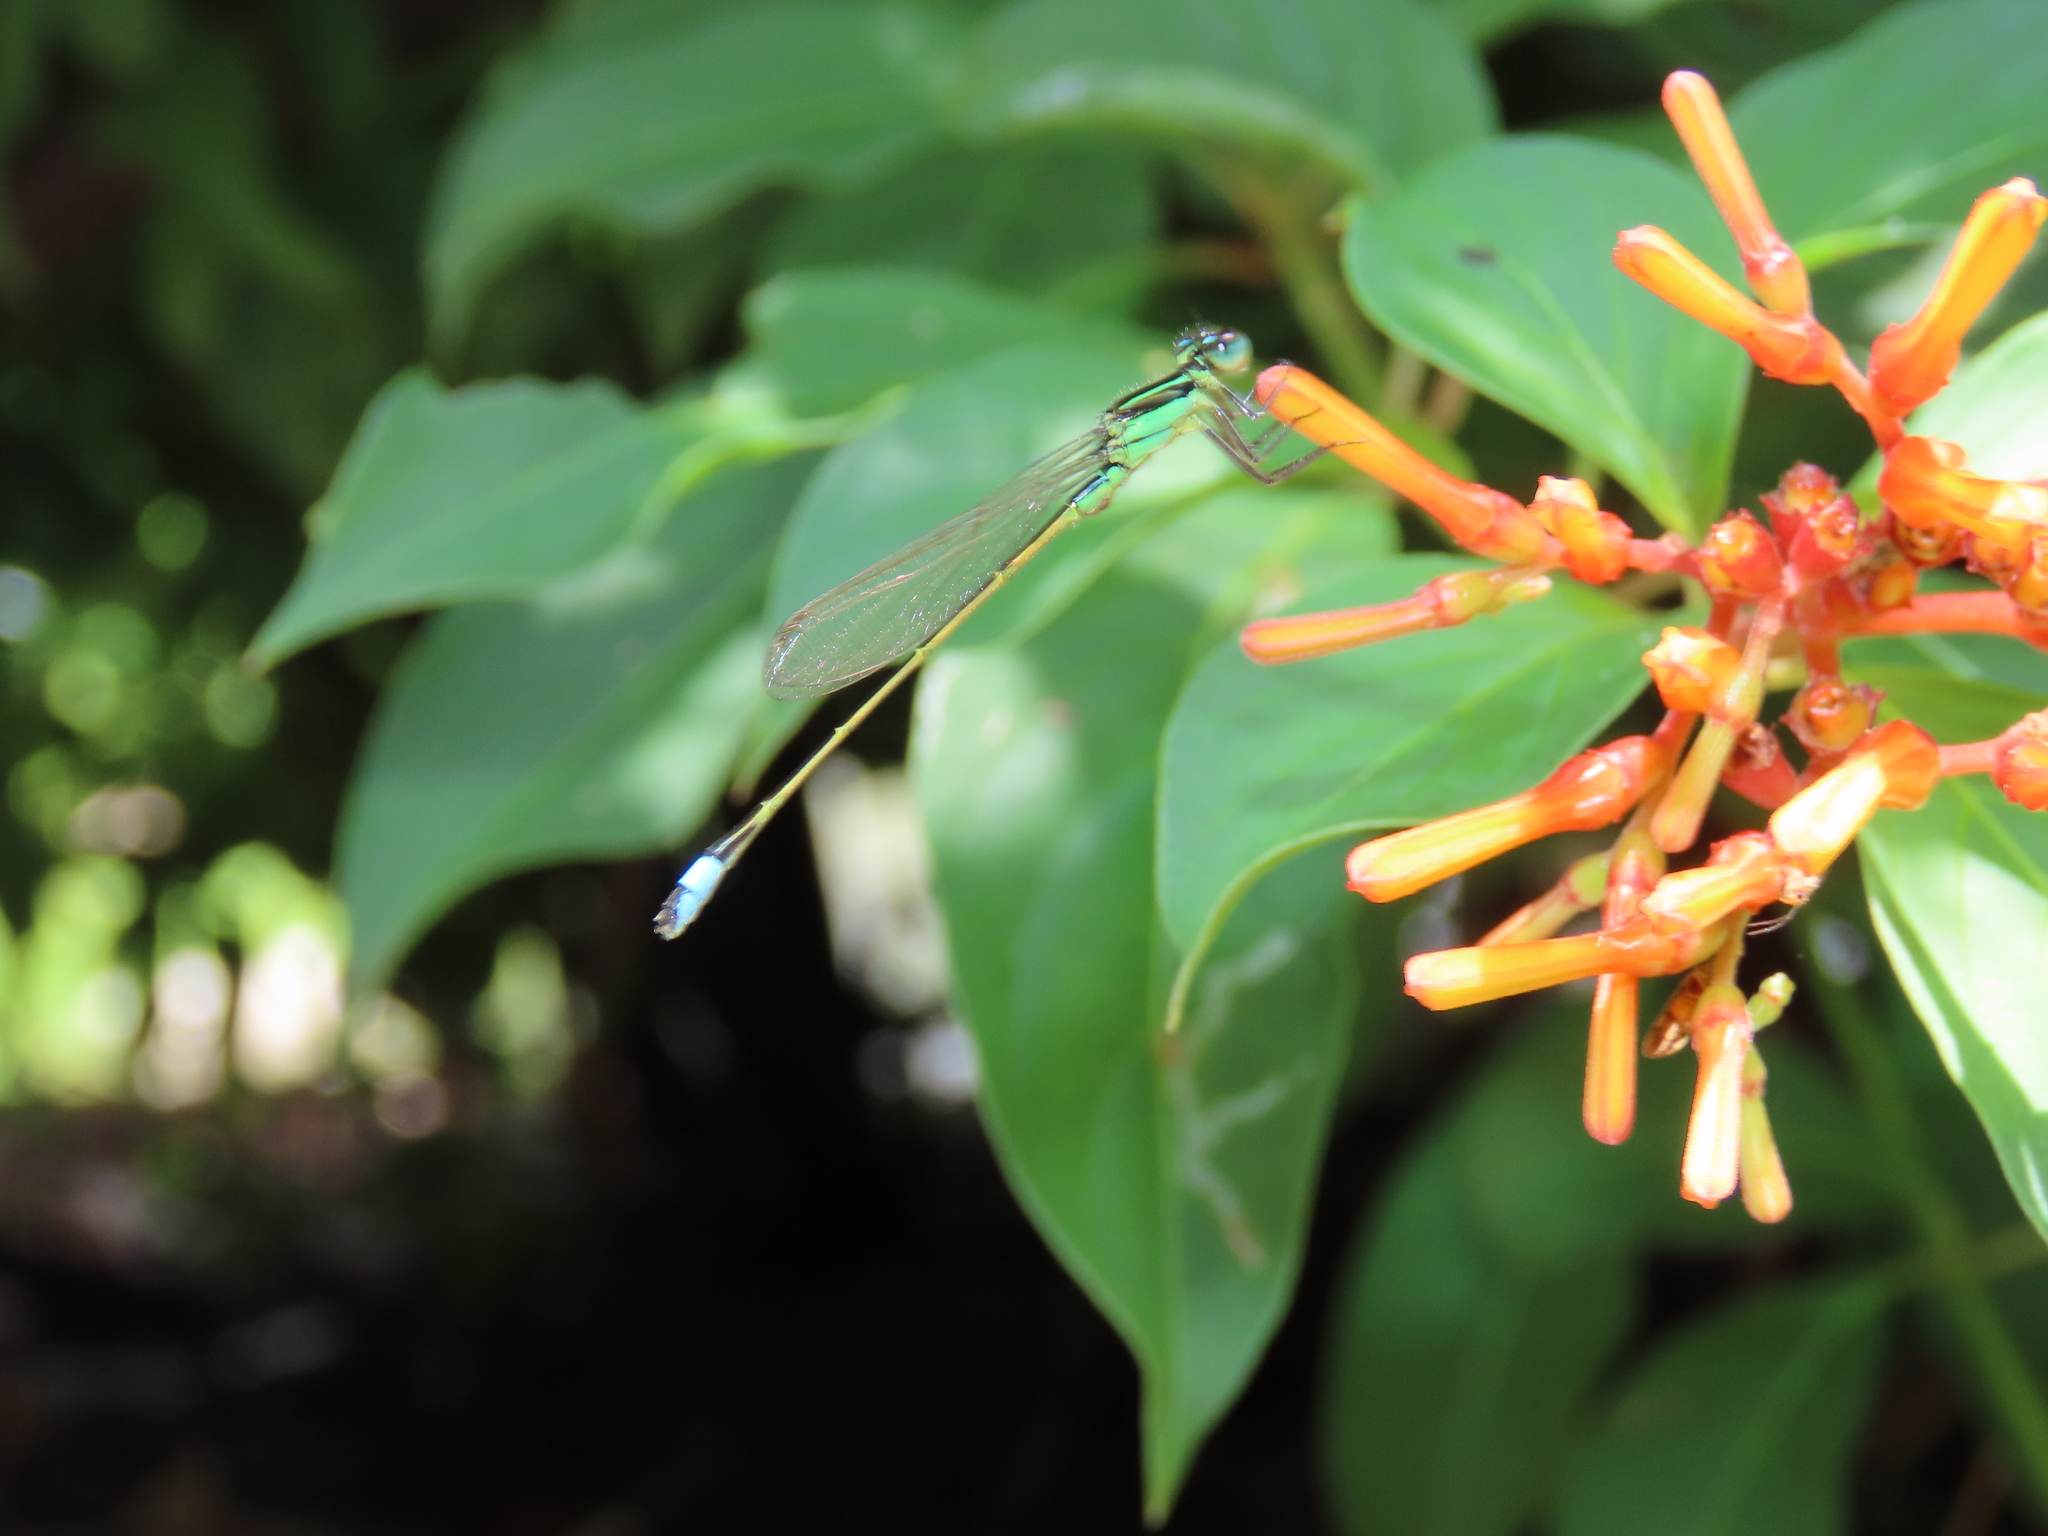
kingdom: Animalia
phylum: Arthropoda
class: Insecta
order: Odonata
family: Coenagrionidae
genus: Ischnura
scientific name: Ischnura ramburii
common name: Rambur's forktail
